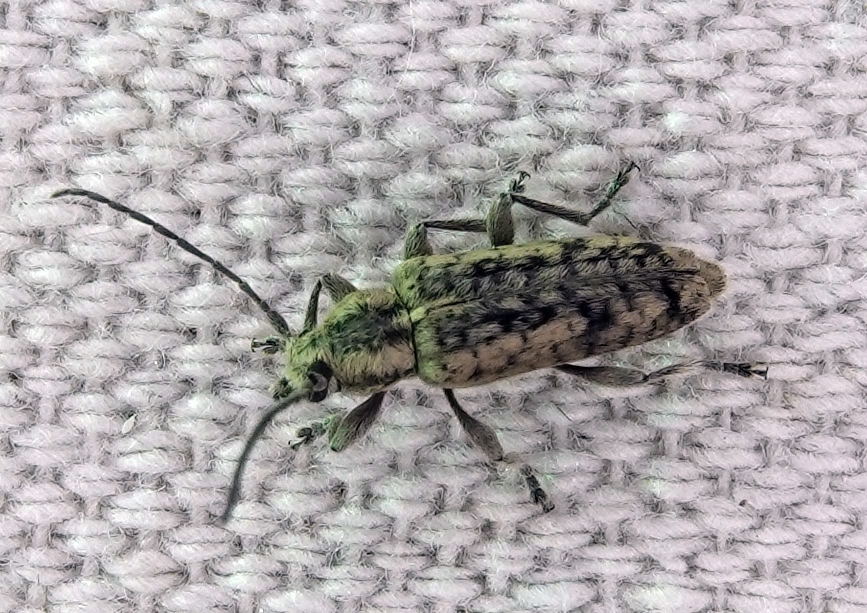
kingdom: Animalia
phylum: Arthropoda
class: Insecta
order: Coleoptera
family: Cerambycidae
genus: Atimia
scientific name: Atimia confusa
